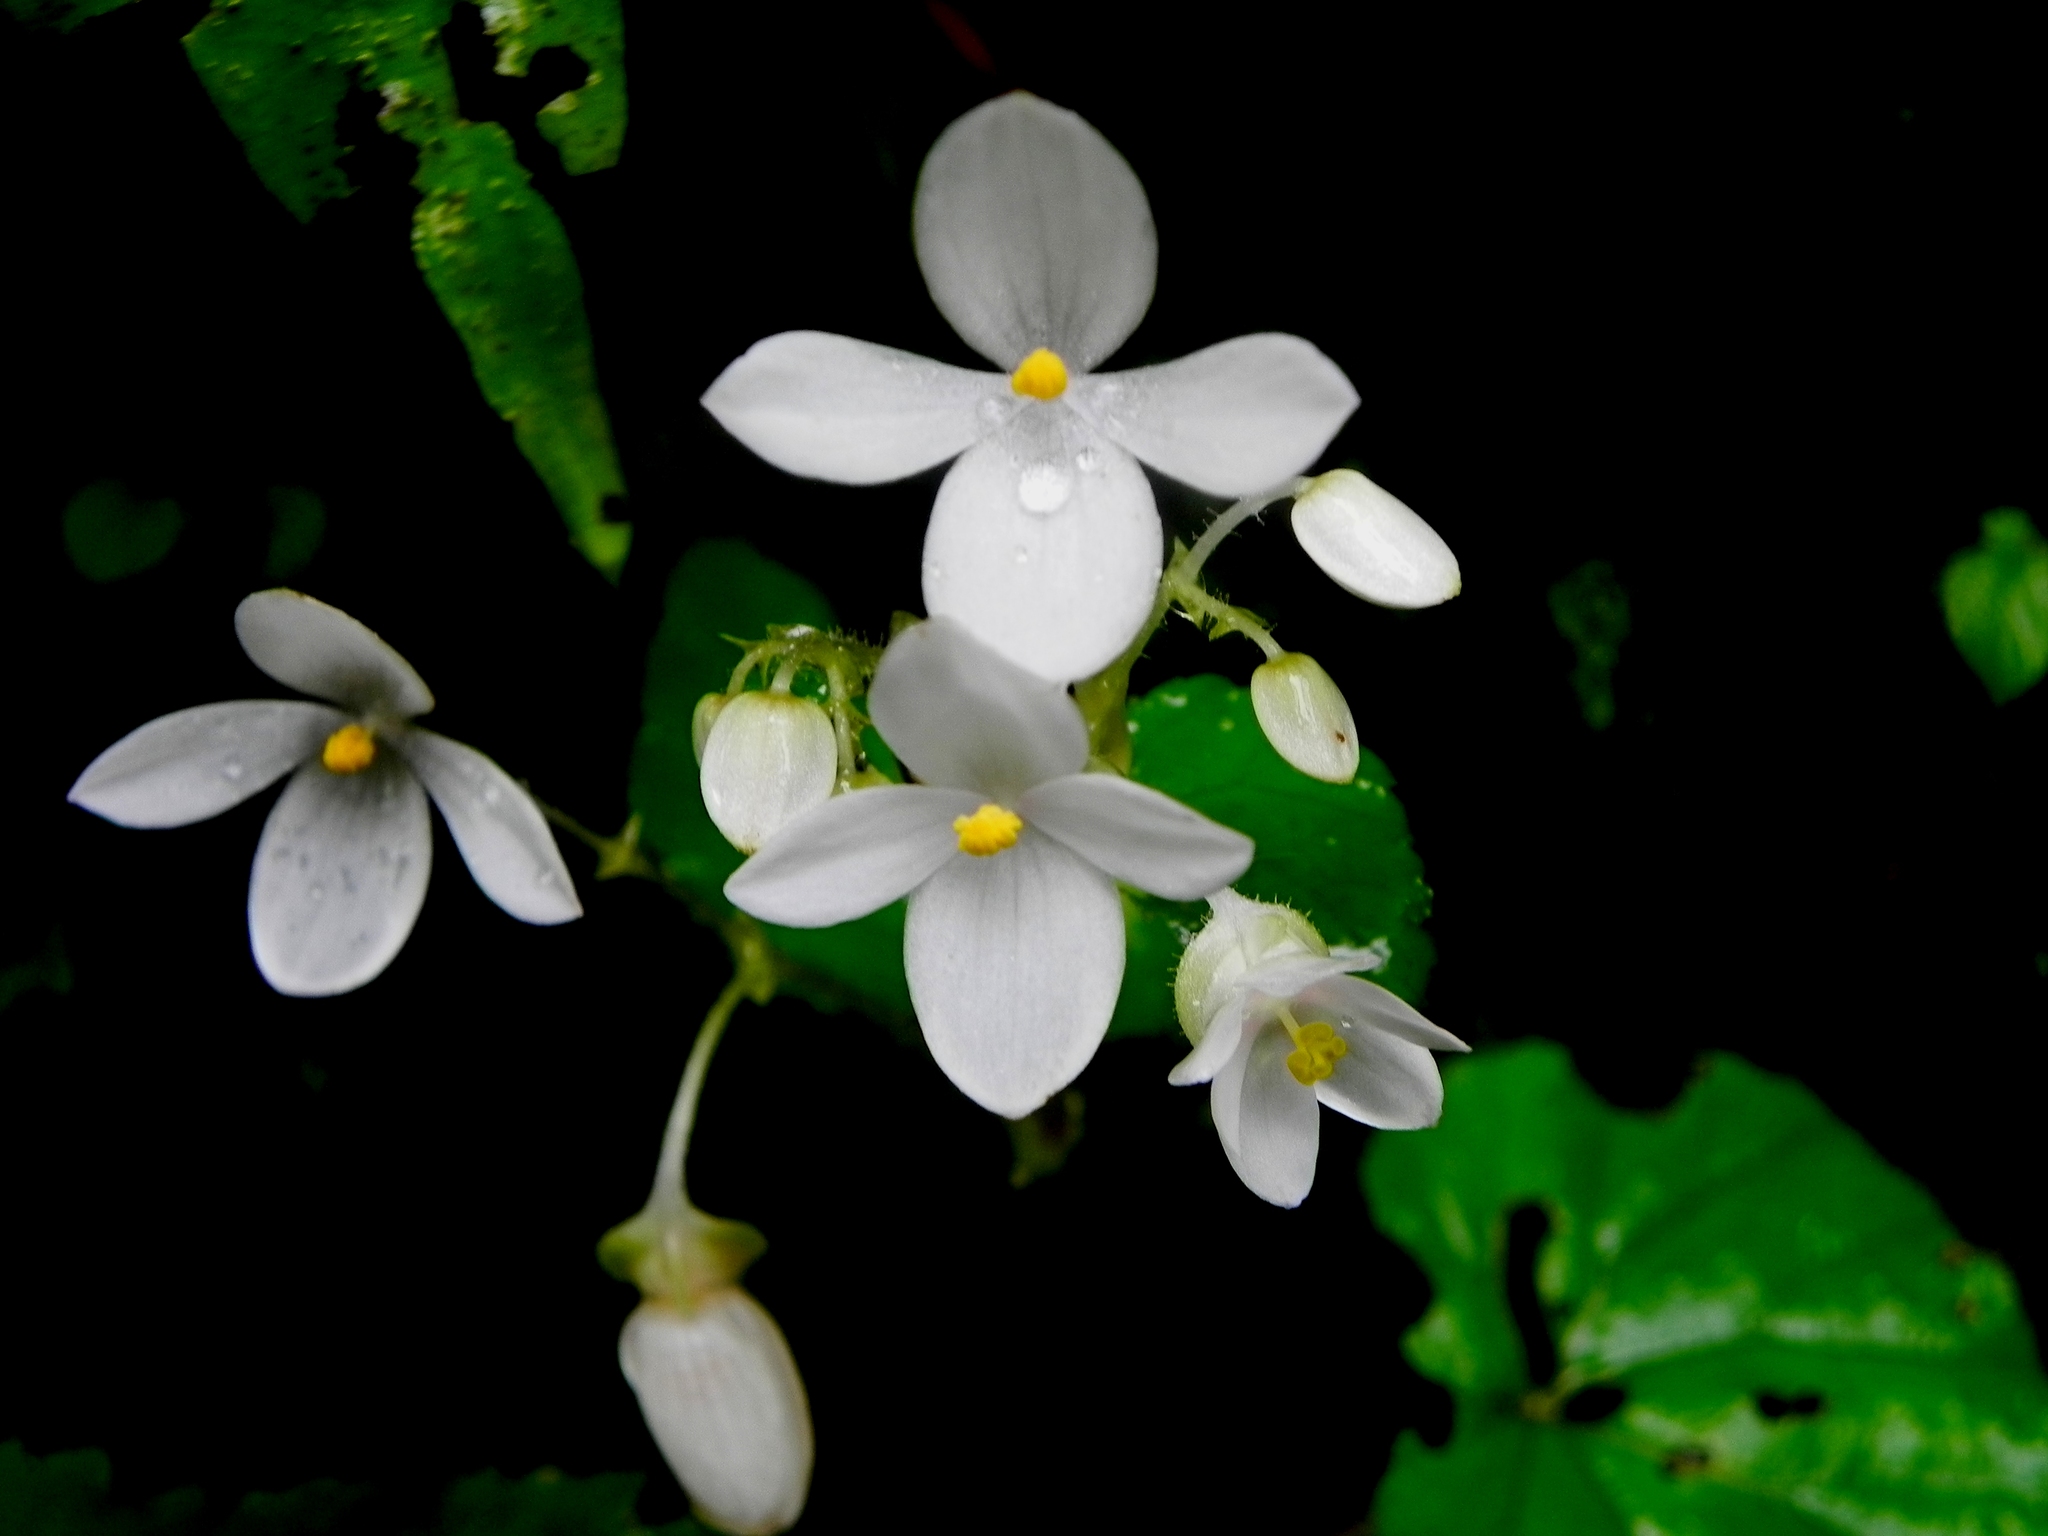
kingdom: Plantae
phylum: Tracheophyta
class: Magnoliopsida
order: Cucurbitales
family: Begoniaceae
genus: Begonia
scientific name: Begonia crenata
